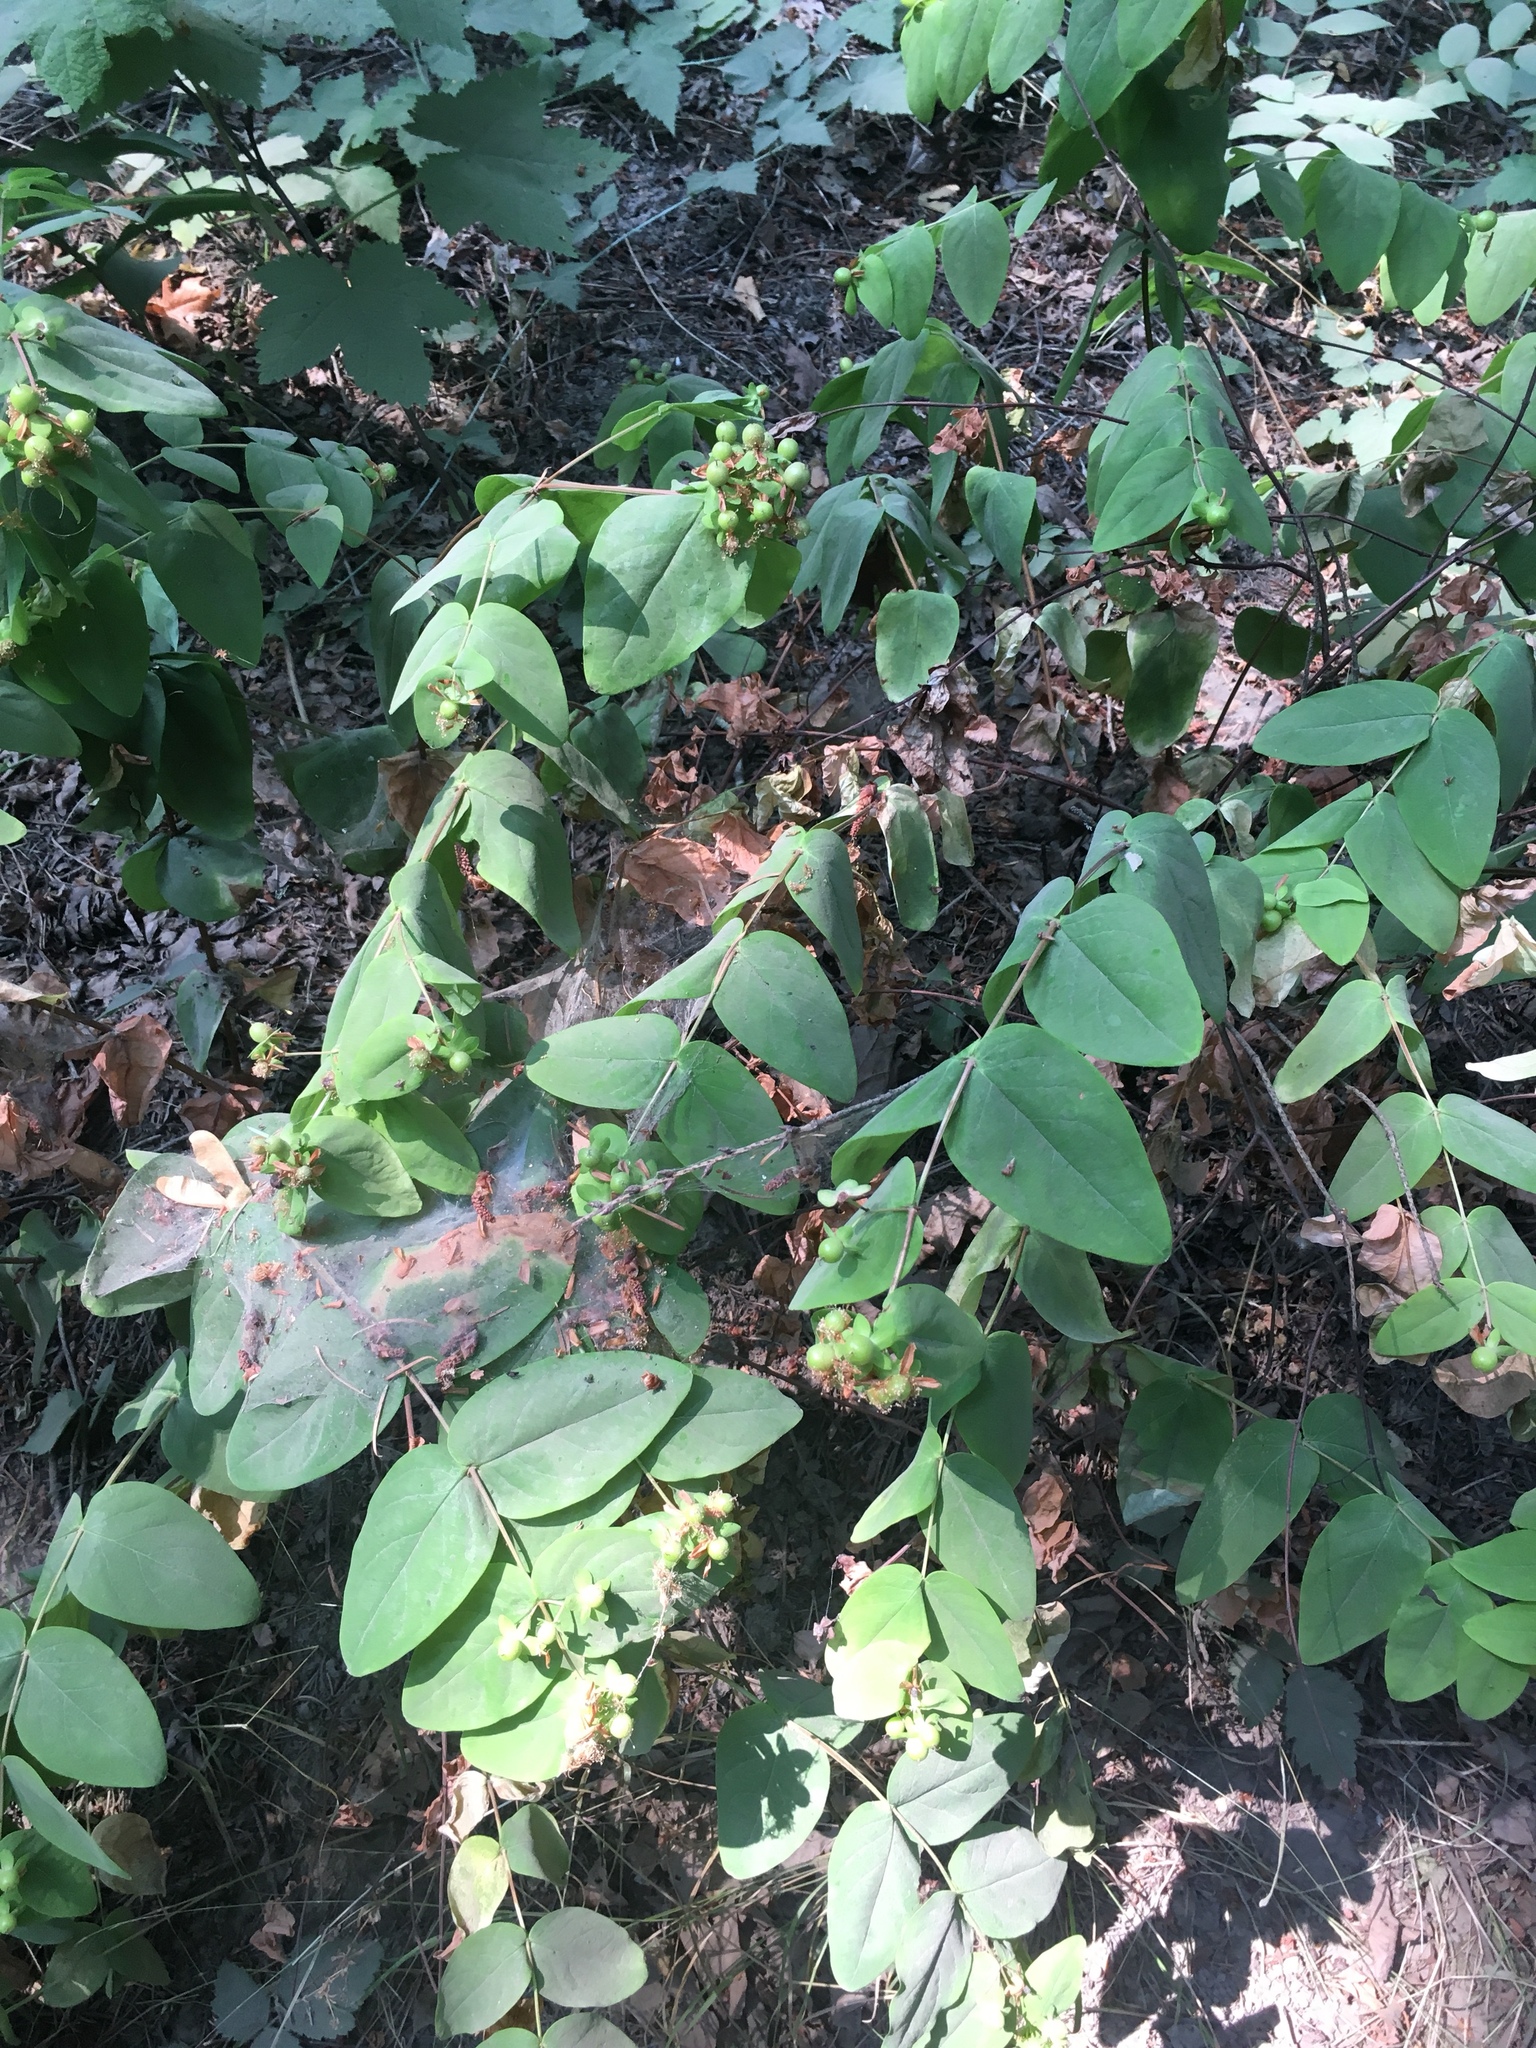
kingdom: Plantae
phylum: Tracheophyta
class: Magnoliopsida
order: Malpighiales
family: Hypericaceae
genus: Hypericum
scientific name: Hypericum calycinum
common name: Rose-of-sharon
